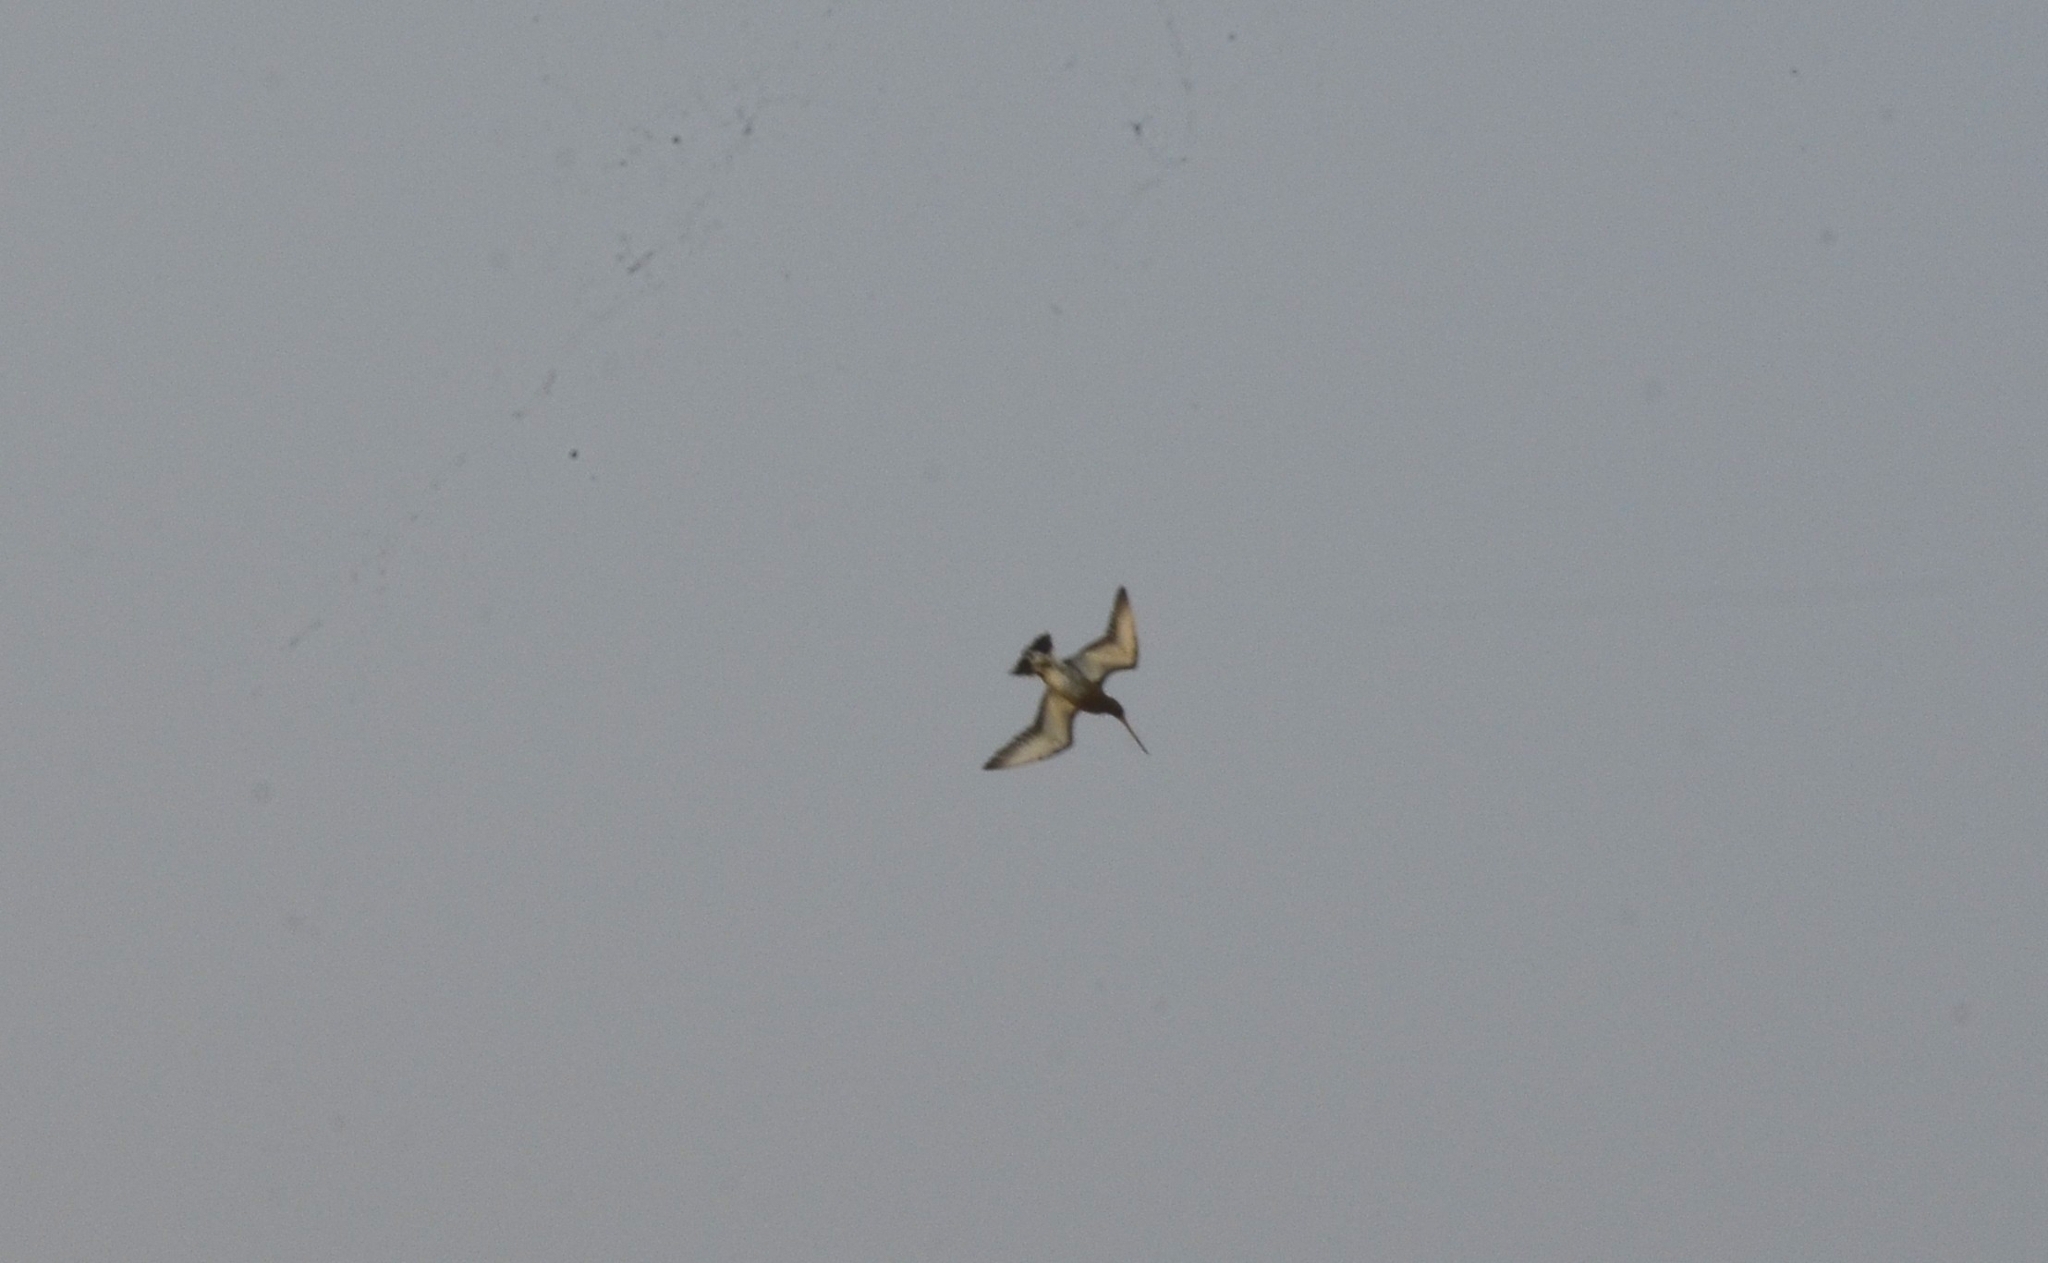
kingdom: Animalia
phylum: Chordata
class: Aves
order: Charadriiformes
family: Scolopacidae
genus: Limosa
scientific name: Limosa limosa
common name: Black-tailed godwit
